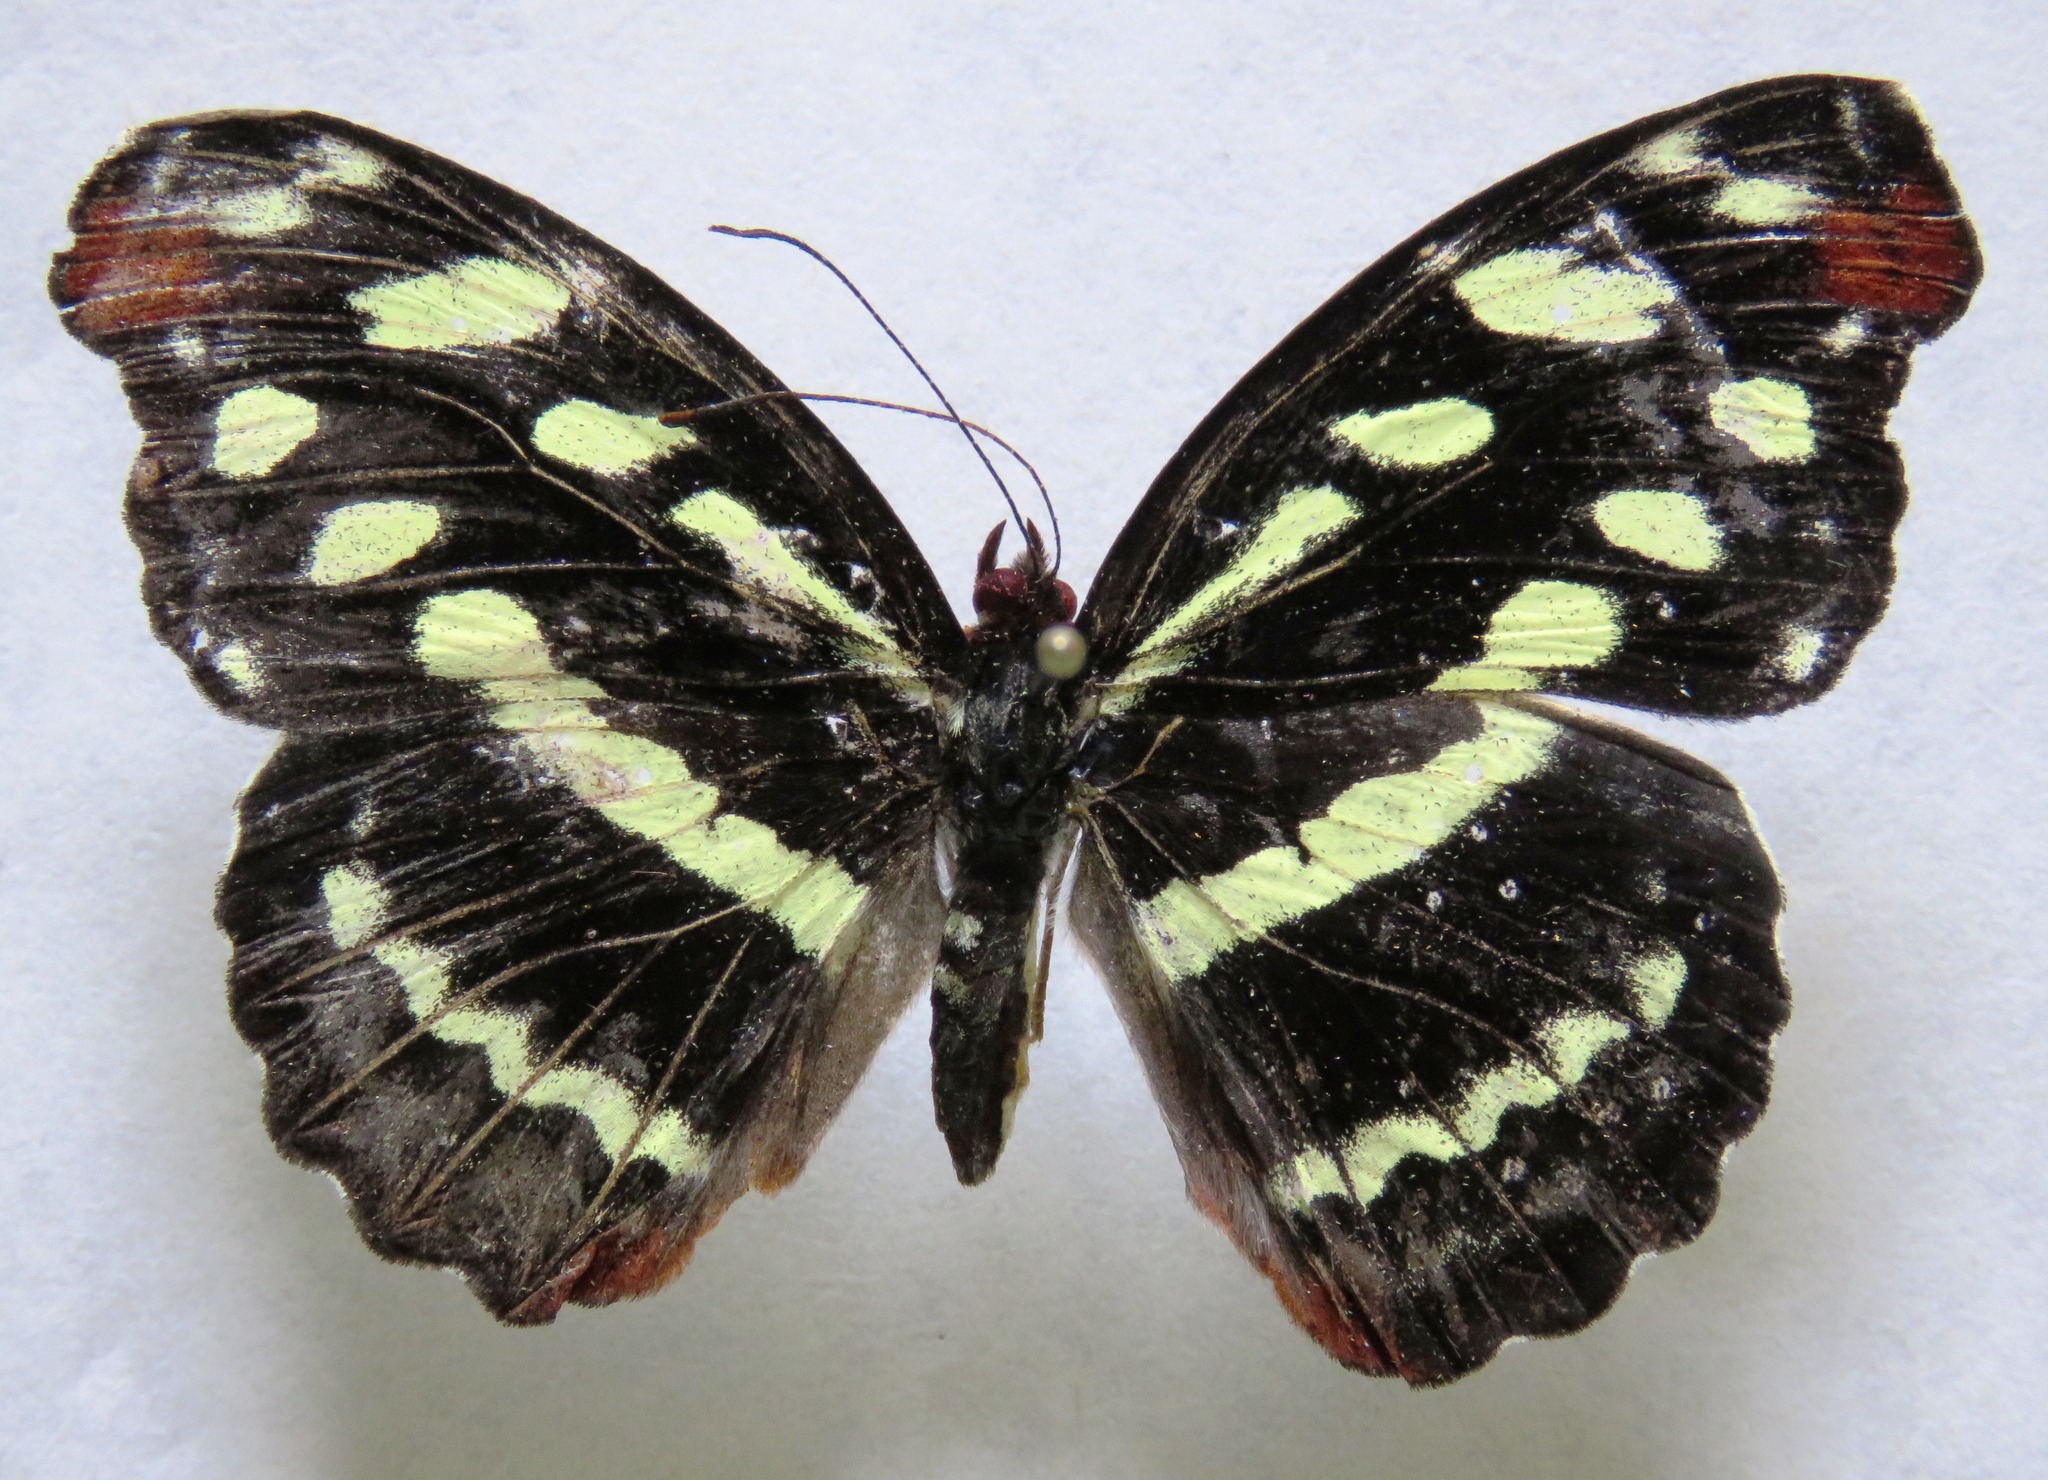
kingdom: Animalia
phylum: Arthropoda
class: Insecta
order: Lepidoptera
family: Nymphalidae
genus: Catonephele
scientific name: Catonephele mexicana
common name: Guatemalan catone
